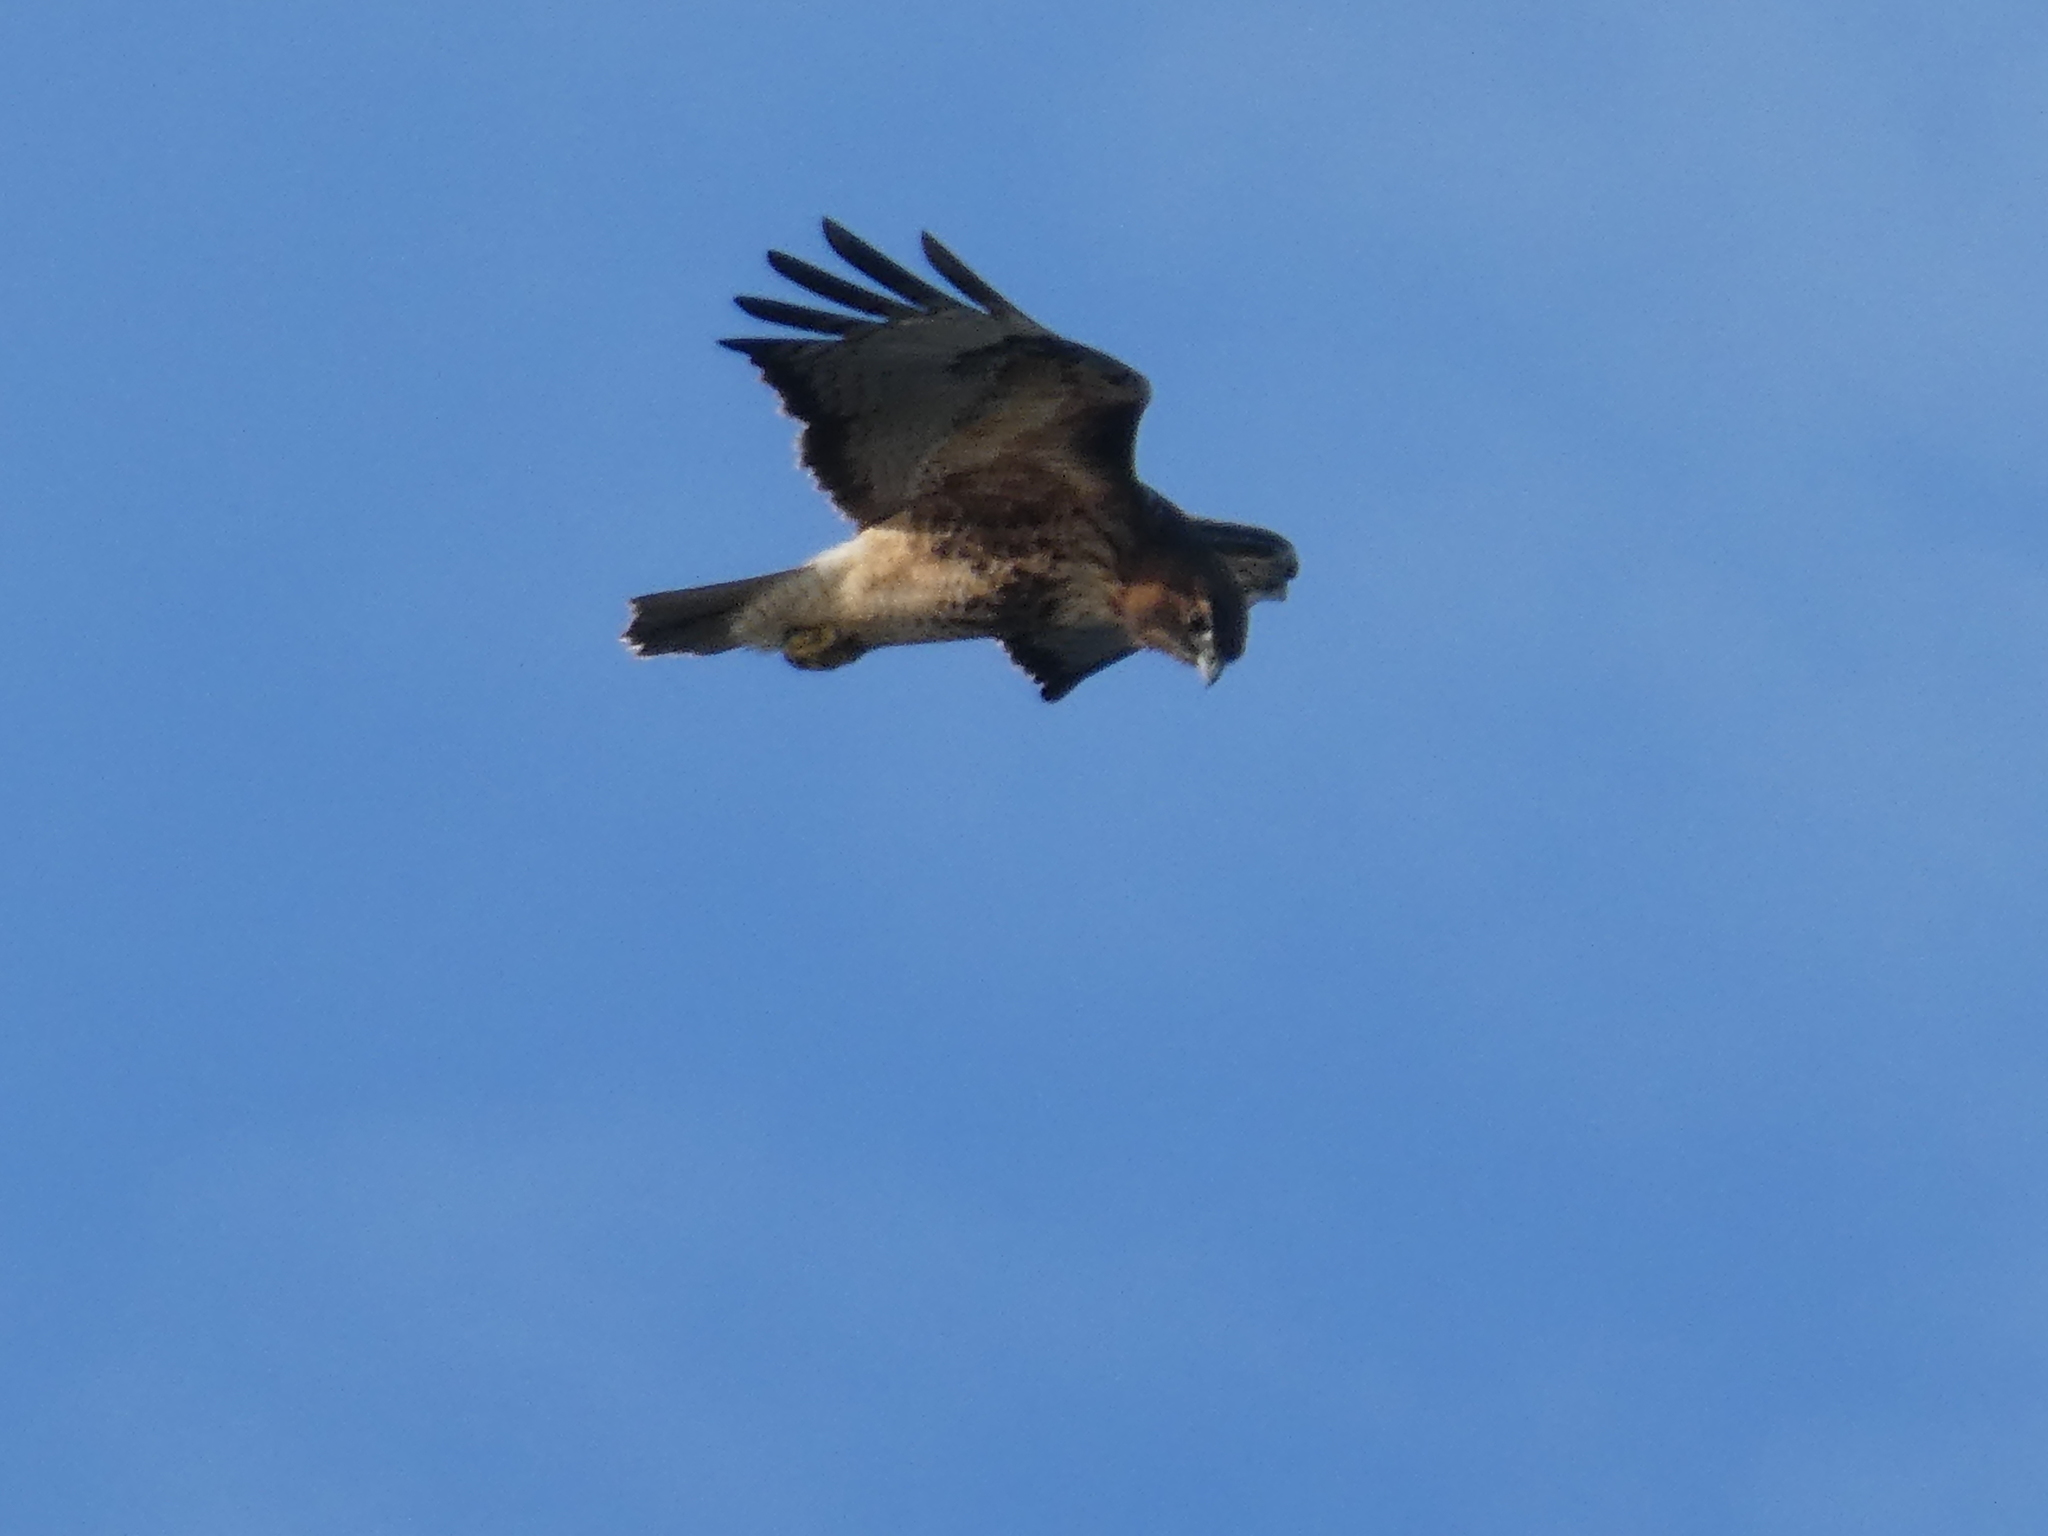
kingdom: Animalia
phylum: Chordata
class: Aves
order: Accipitriformes
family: Accipitridae
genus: Buteo
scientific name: Buteo jamaicensis
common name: Red-tailed hawk
